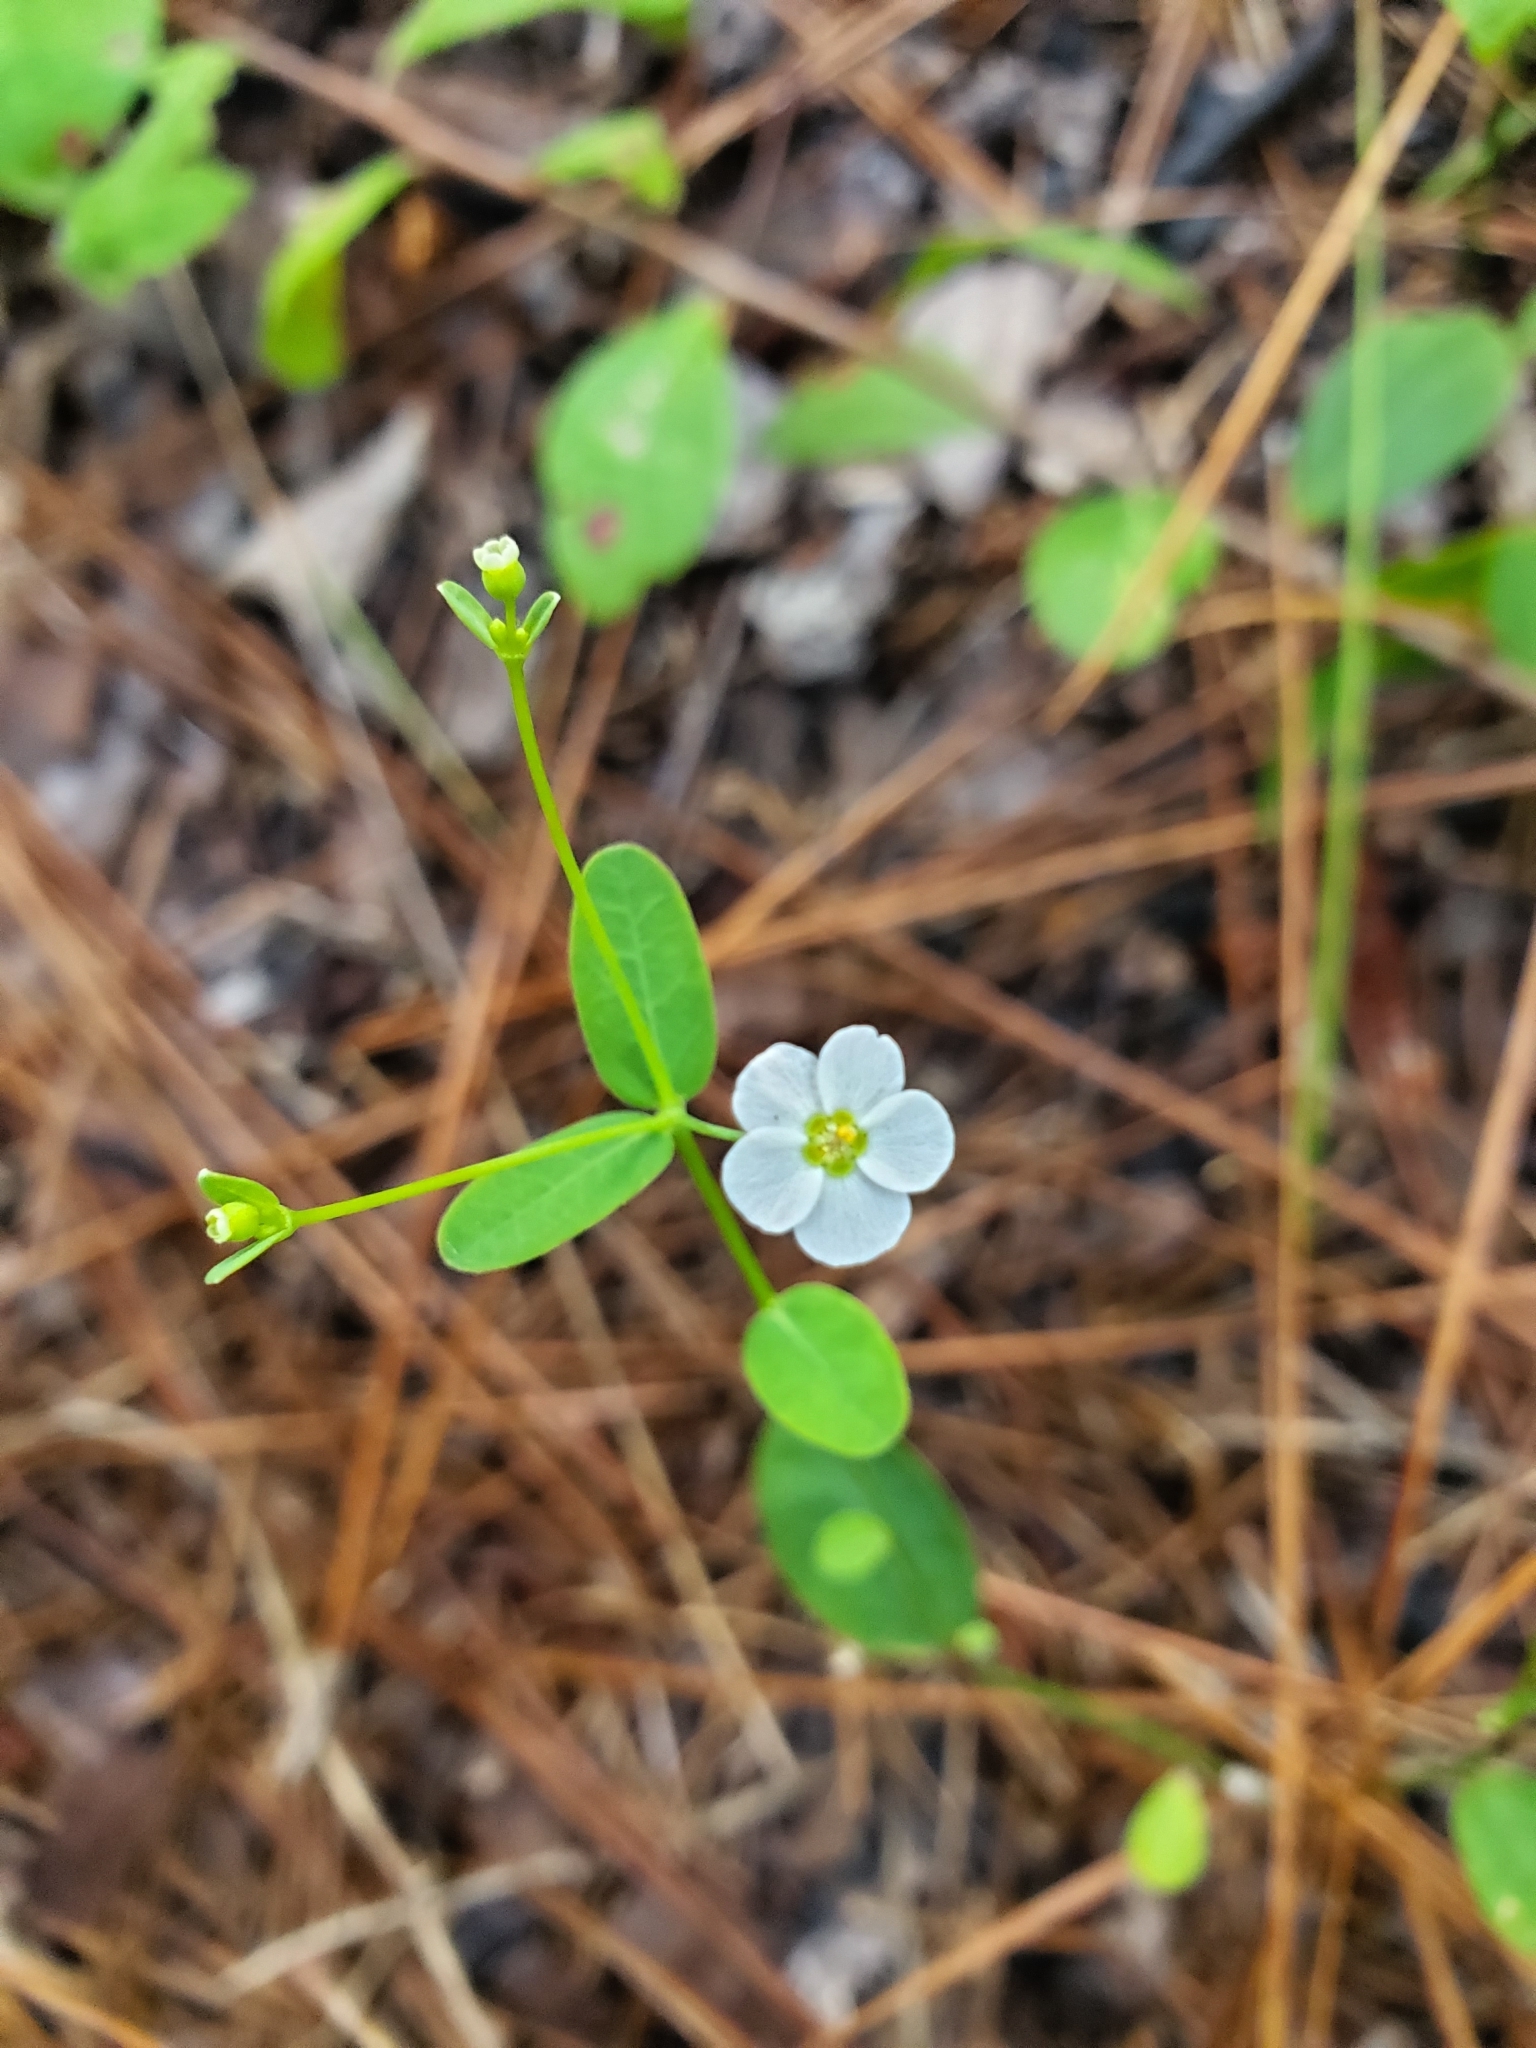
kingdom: Plantae
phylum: Tracheophyta
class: Magnoliopsida
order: Malpighiales
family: Euphorbiaceae
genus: Euphorbia
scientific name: Euphorbia corollata
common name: Flowering spurge
